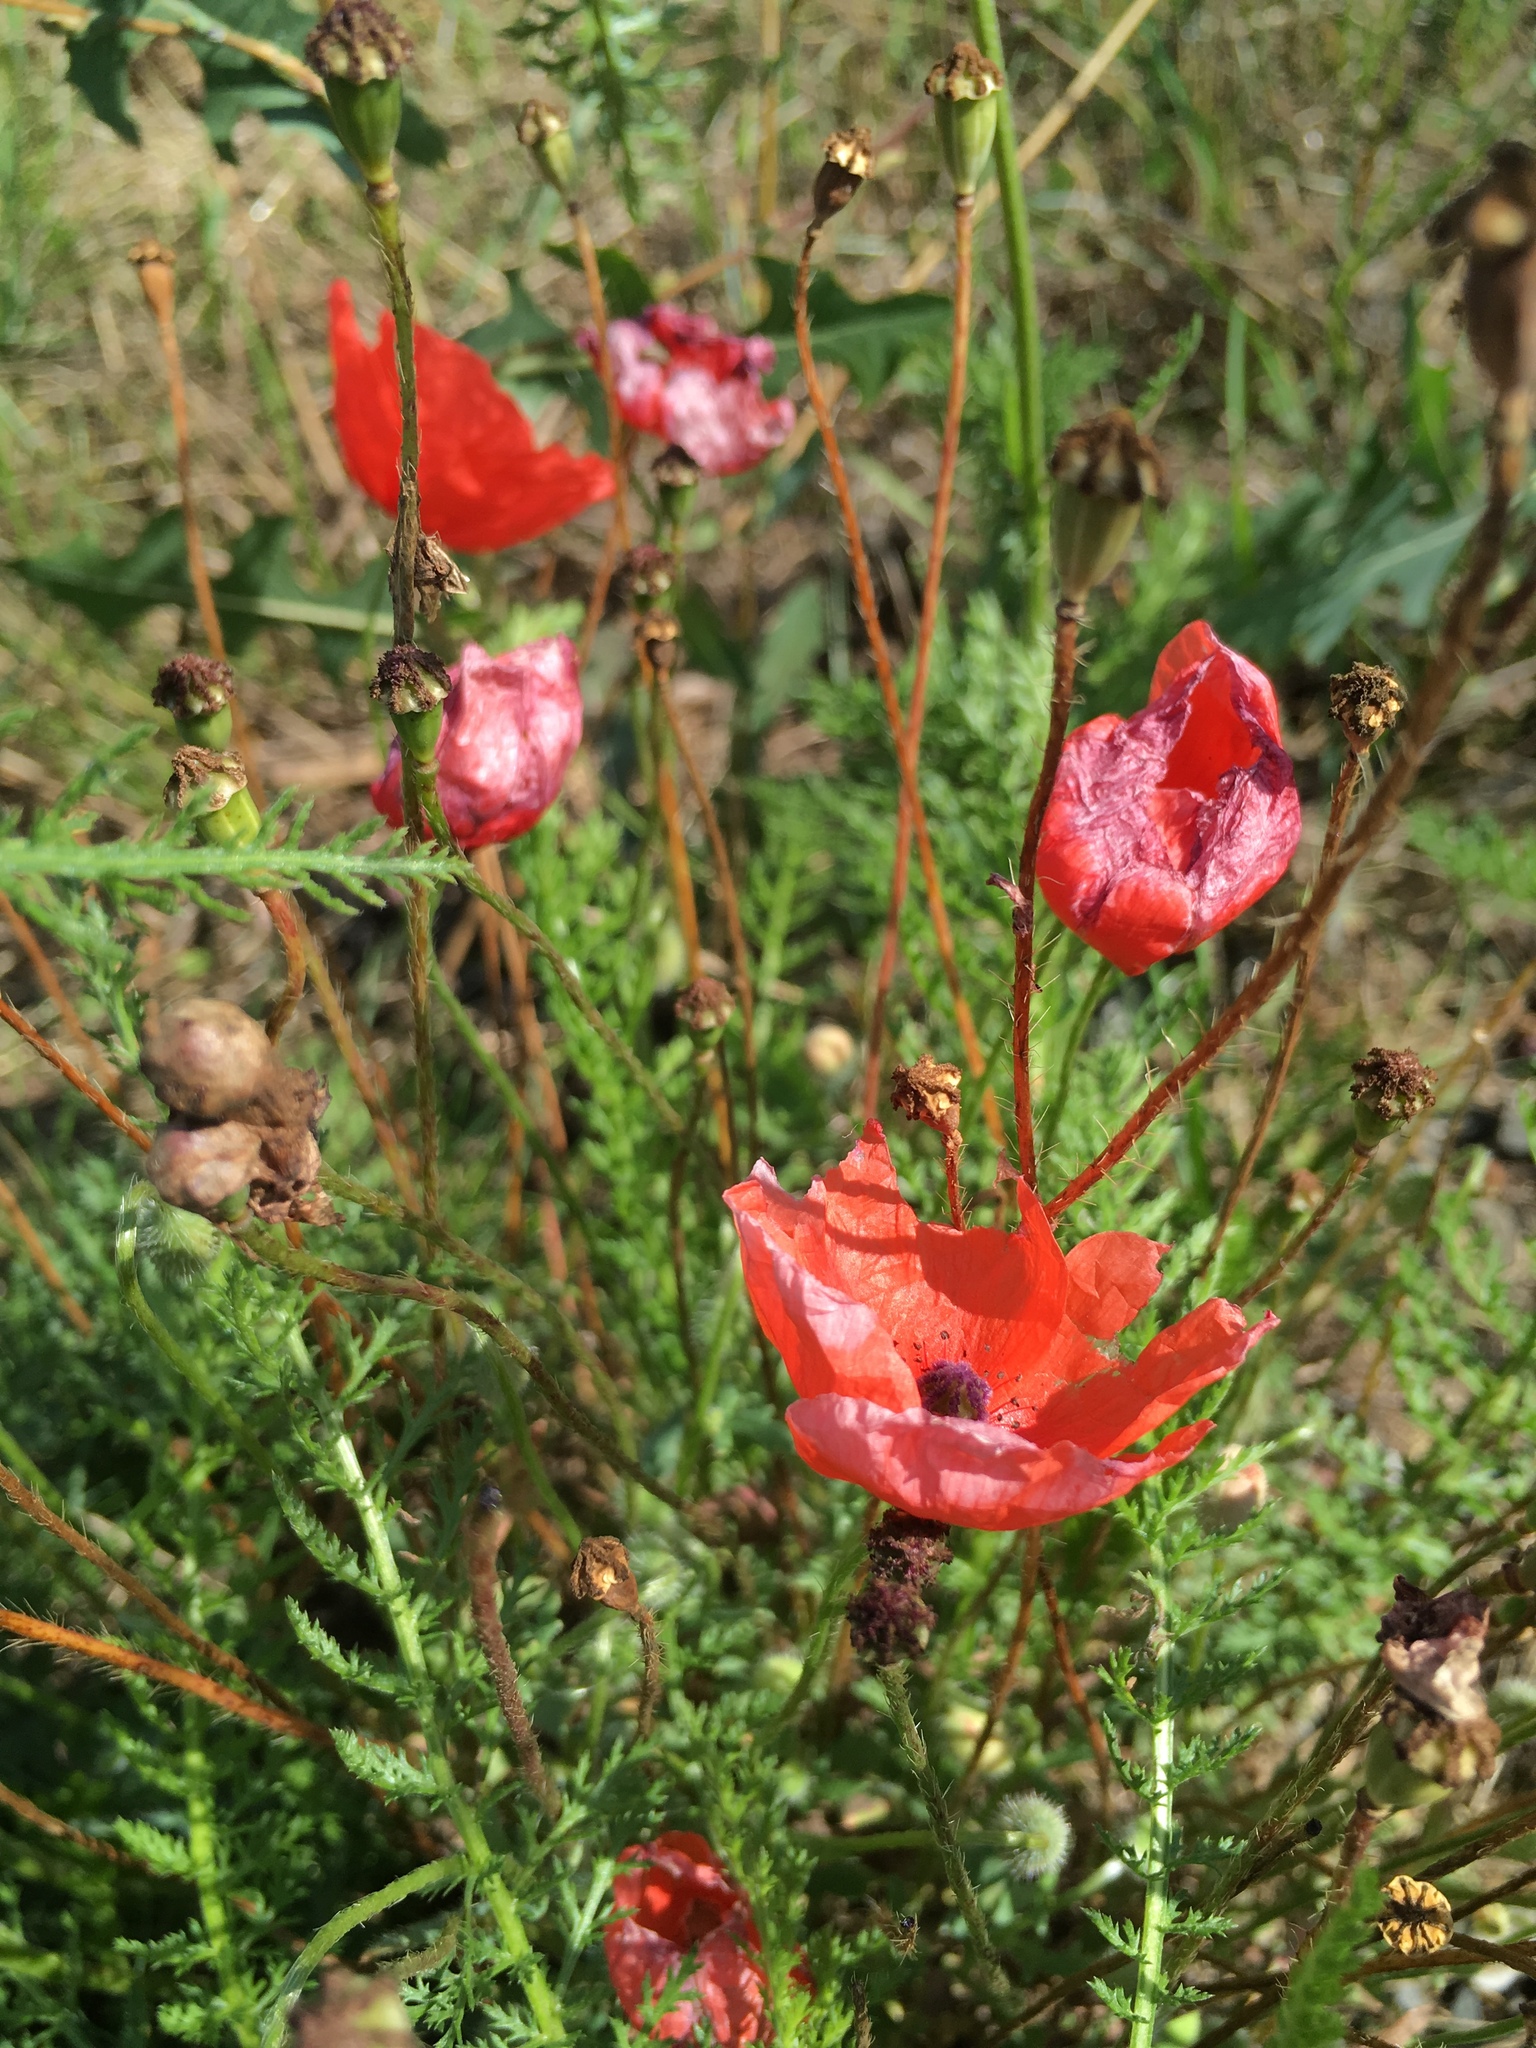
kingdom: Plantae
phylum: Tracheophyta
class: Magnoliopsida
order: Ranunculales
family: Papaveraceae
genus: Papaver
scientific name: Papaver rhoeas
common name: Corn poppy
